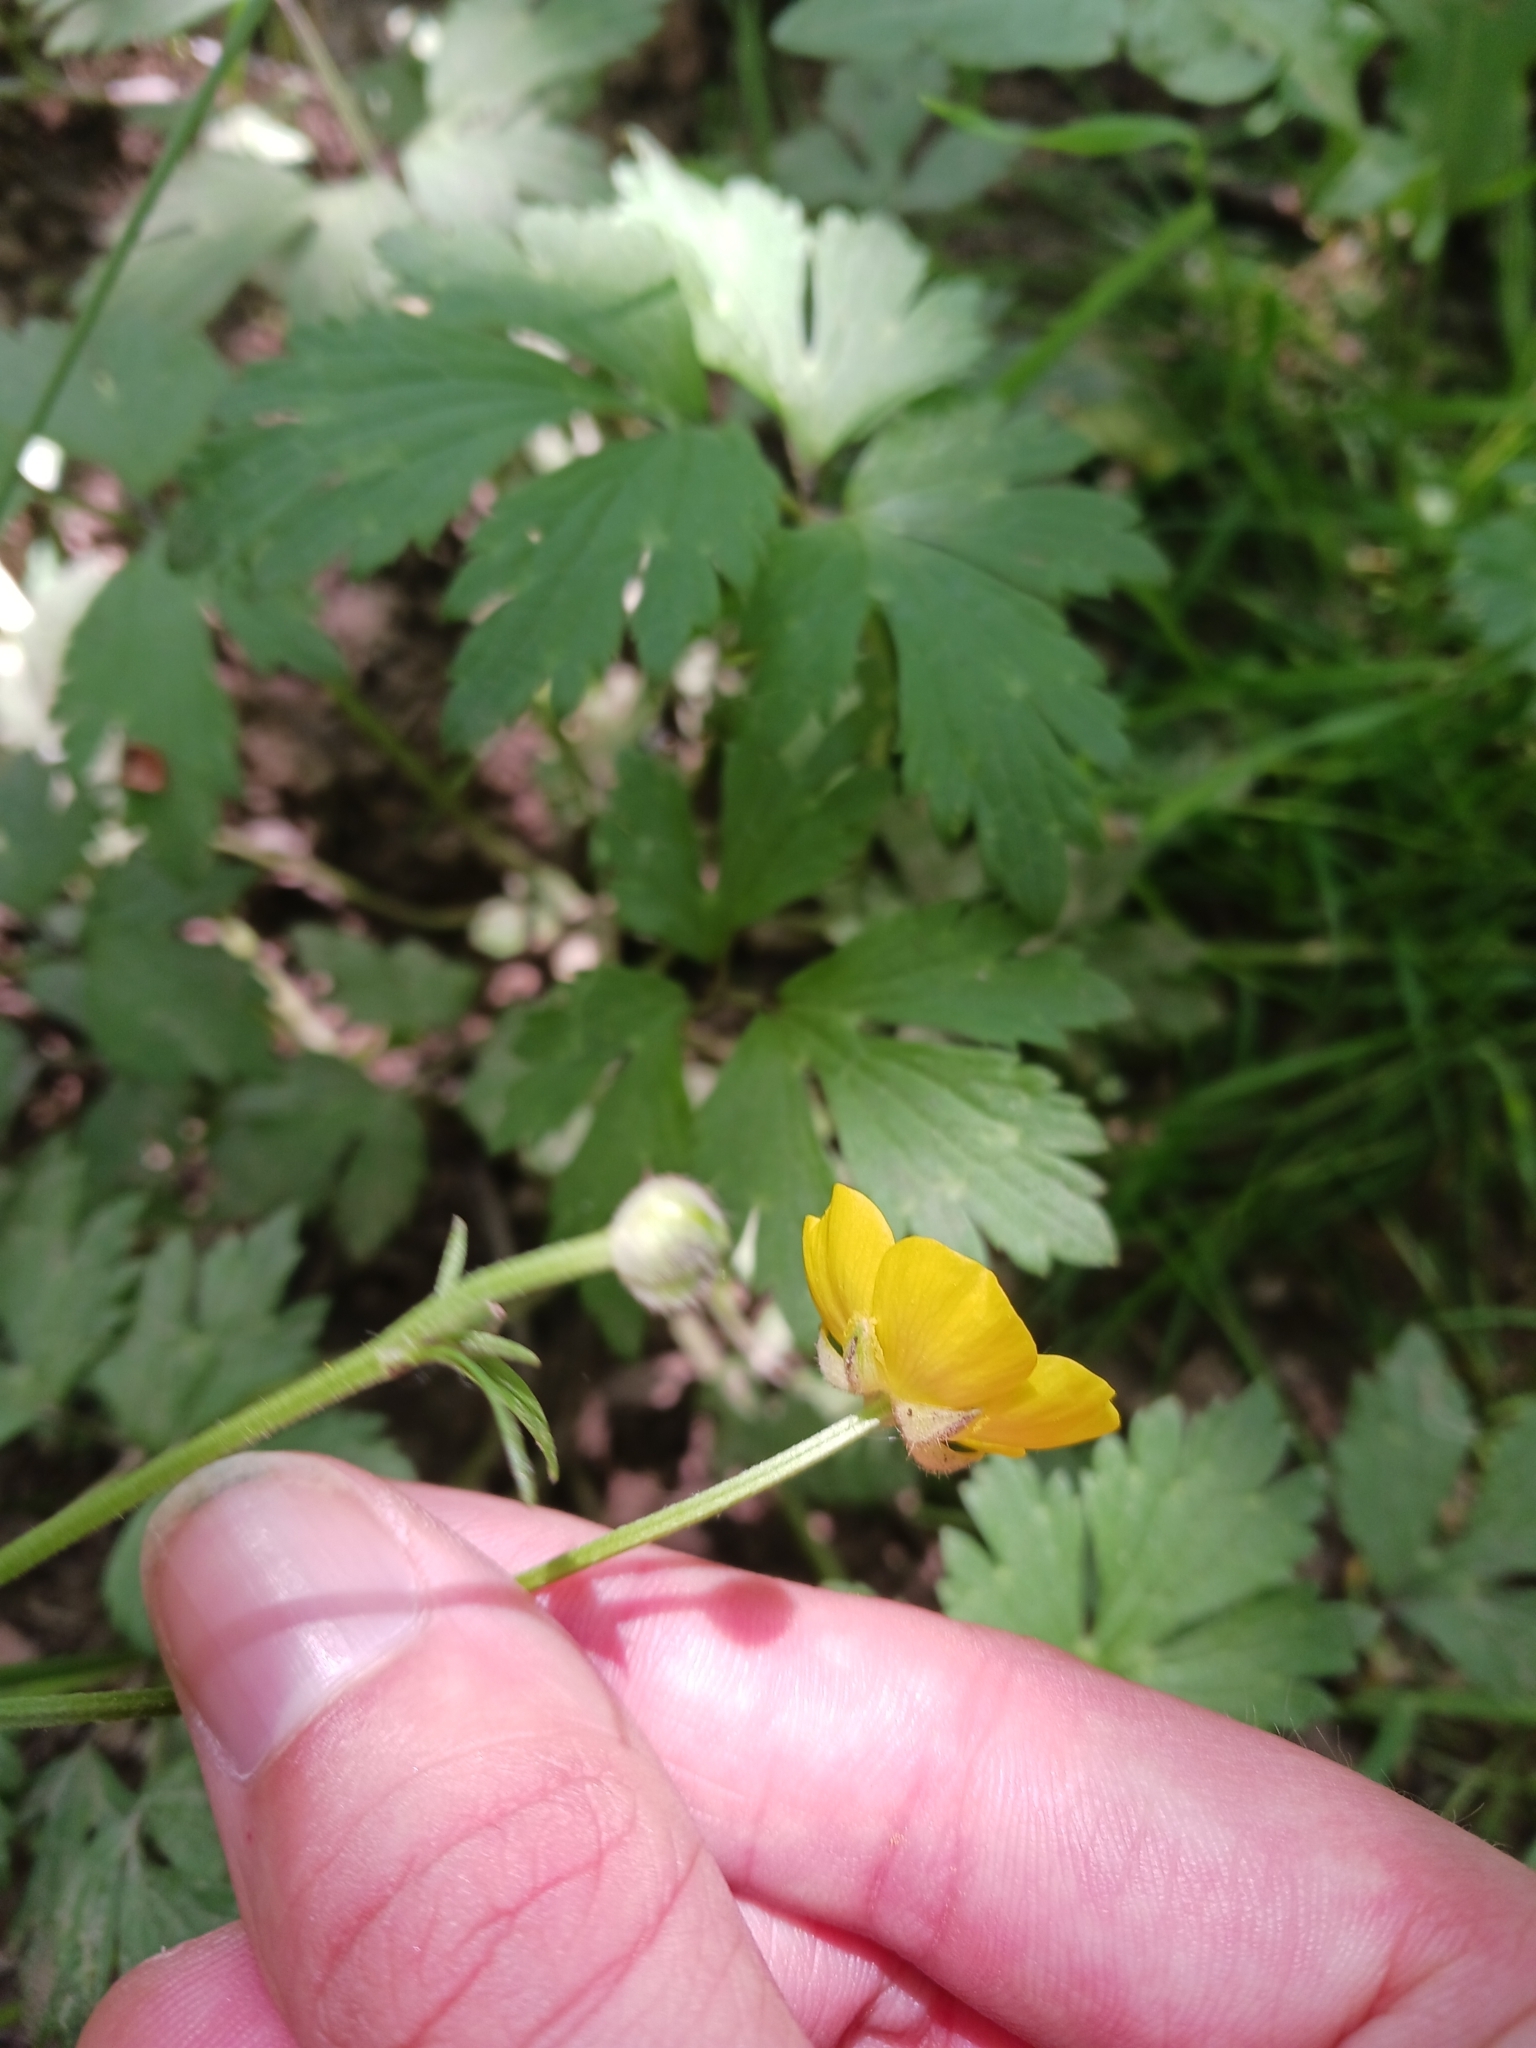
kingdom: Plantae
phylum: Tracheophyta
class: Magnoliopsida
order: Ranunculales
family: Ranunculaceae
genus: Ranunculus
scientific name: Ranunculus repens
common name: Creeping buttercup
